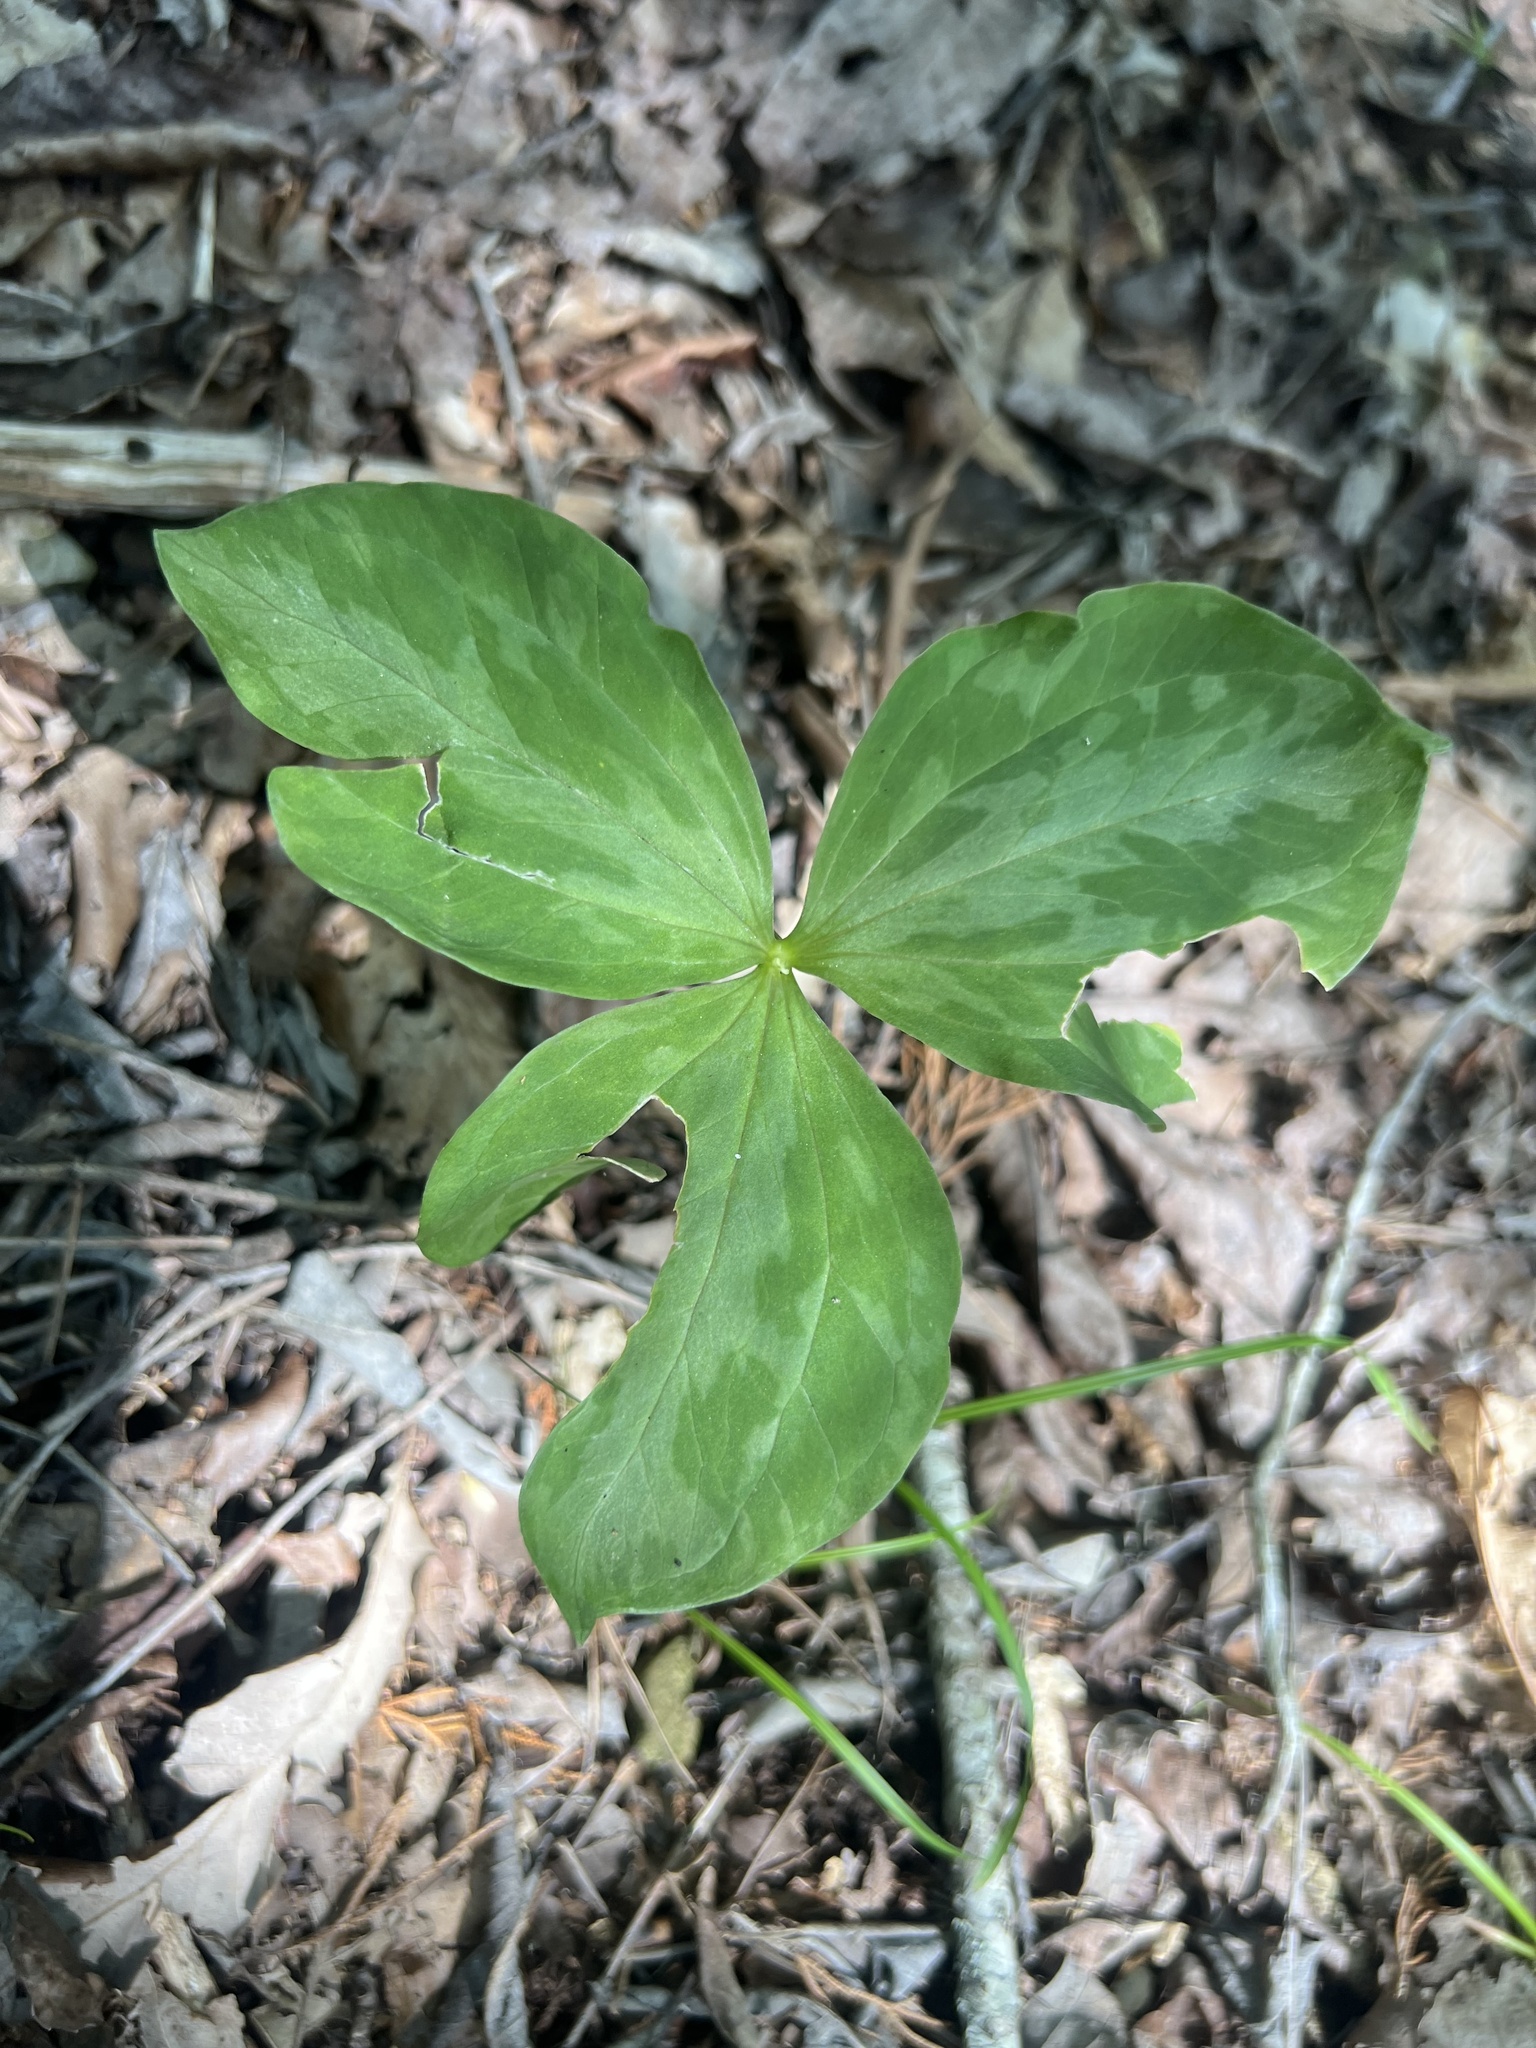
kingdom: Plantae
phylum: Tracheophyta
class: Liliopsida
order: Liliales
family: Melanthiaceae
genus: Trillium
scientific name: Trillium sessile
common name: Sessile trillium
